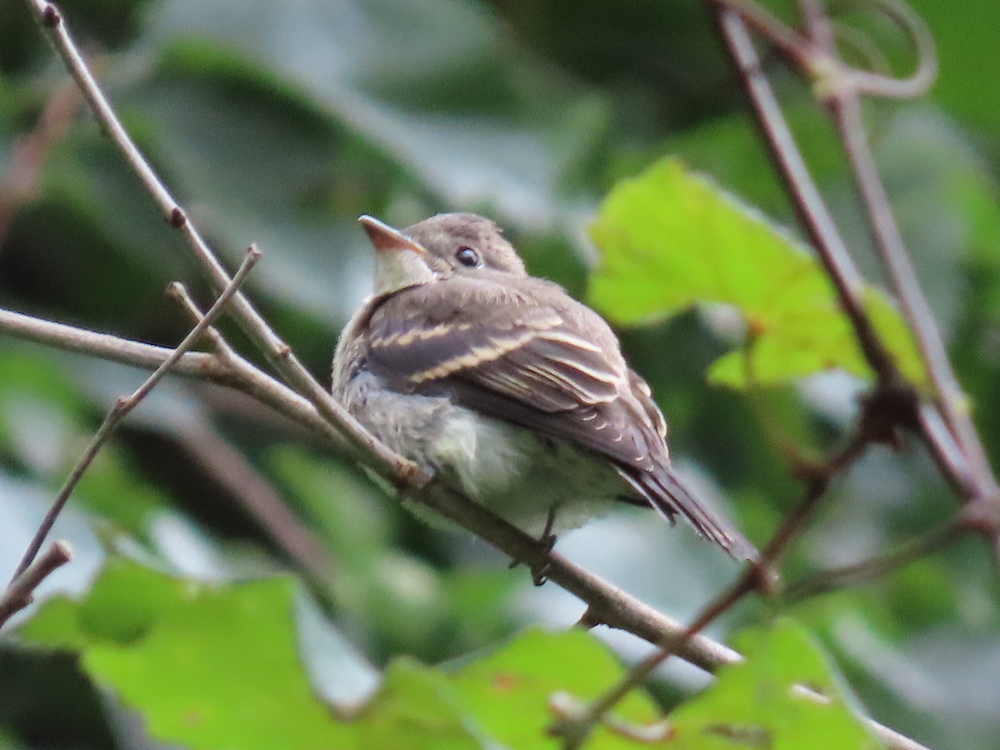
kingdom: Animalia
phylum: Chordata
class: Aves
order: Passeriformes
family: Tyrannidae
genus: Contopus
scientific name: Contopus virens
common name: Eastern wood-pewee
